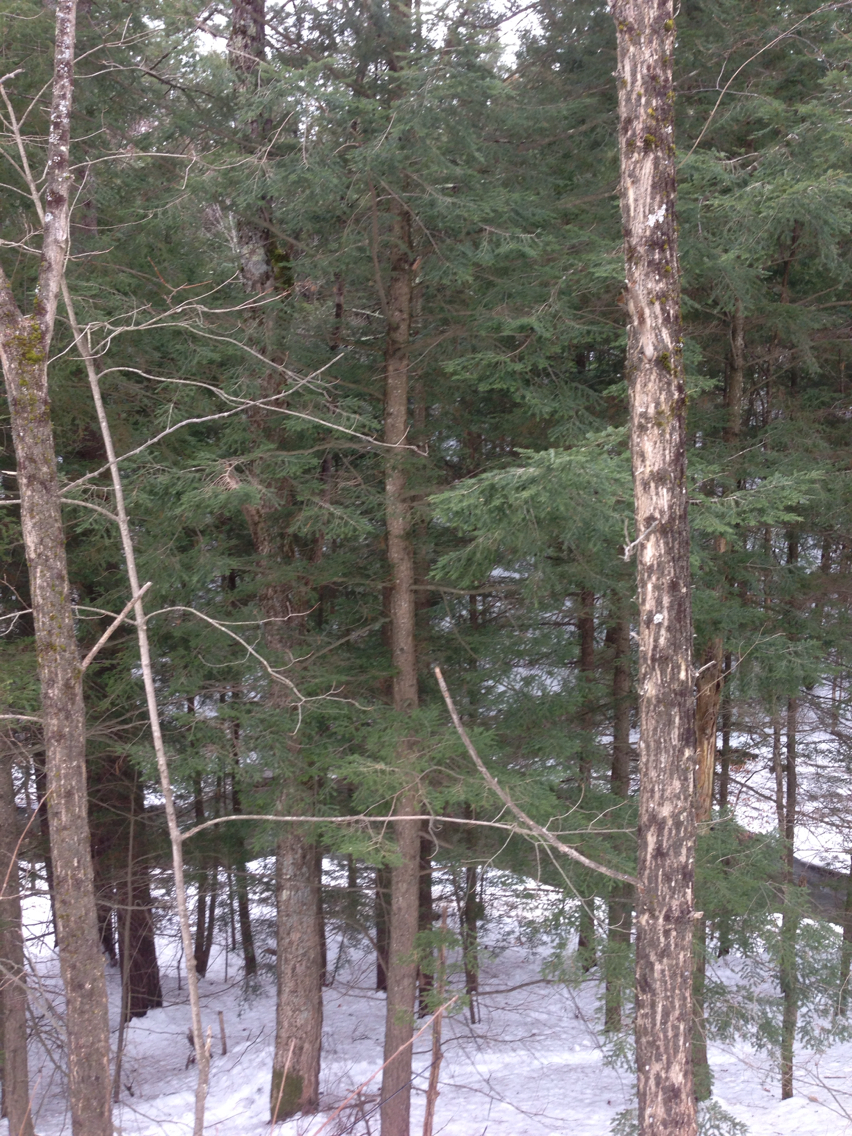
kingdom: Plantae
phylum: Tracheophyta
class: Pinopsida
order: Pinales
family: Pinaceae
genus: Tsuga
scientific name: Tsuga canadensis
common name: Eastern hemlock
